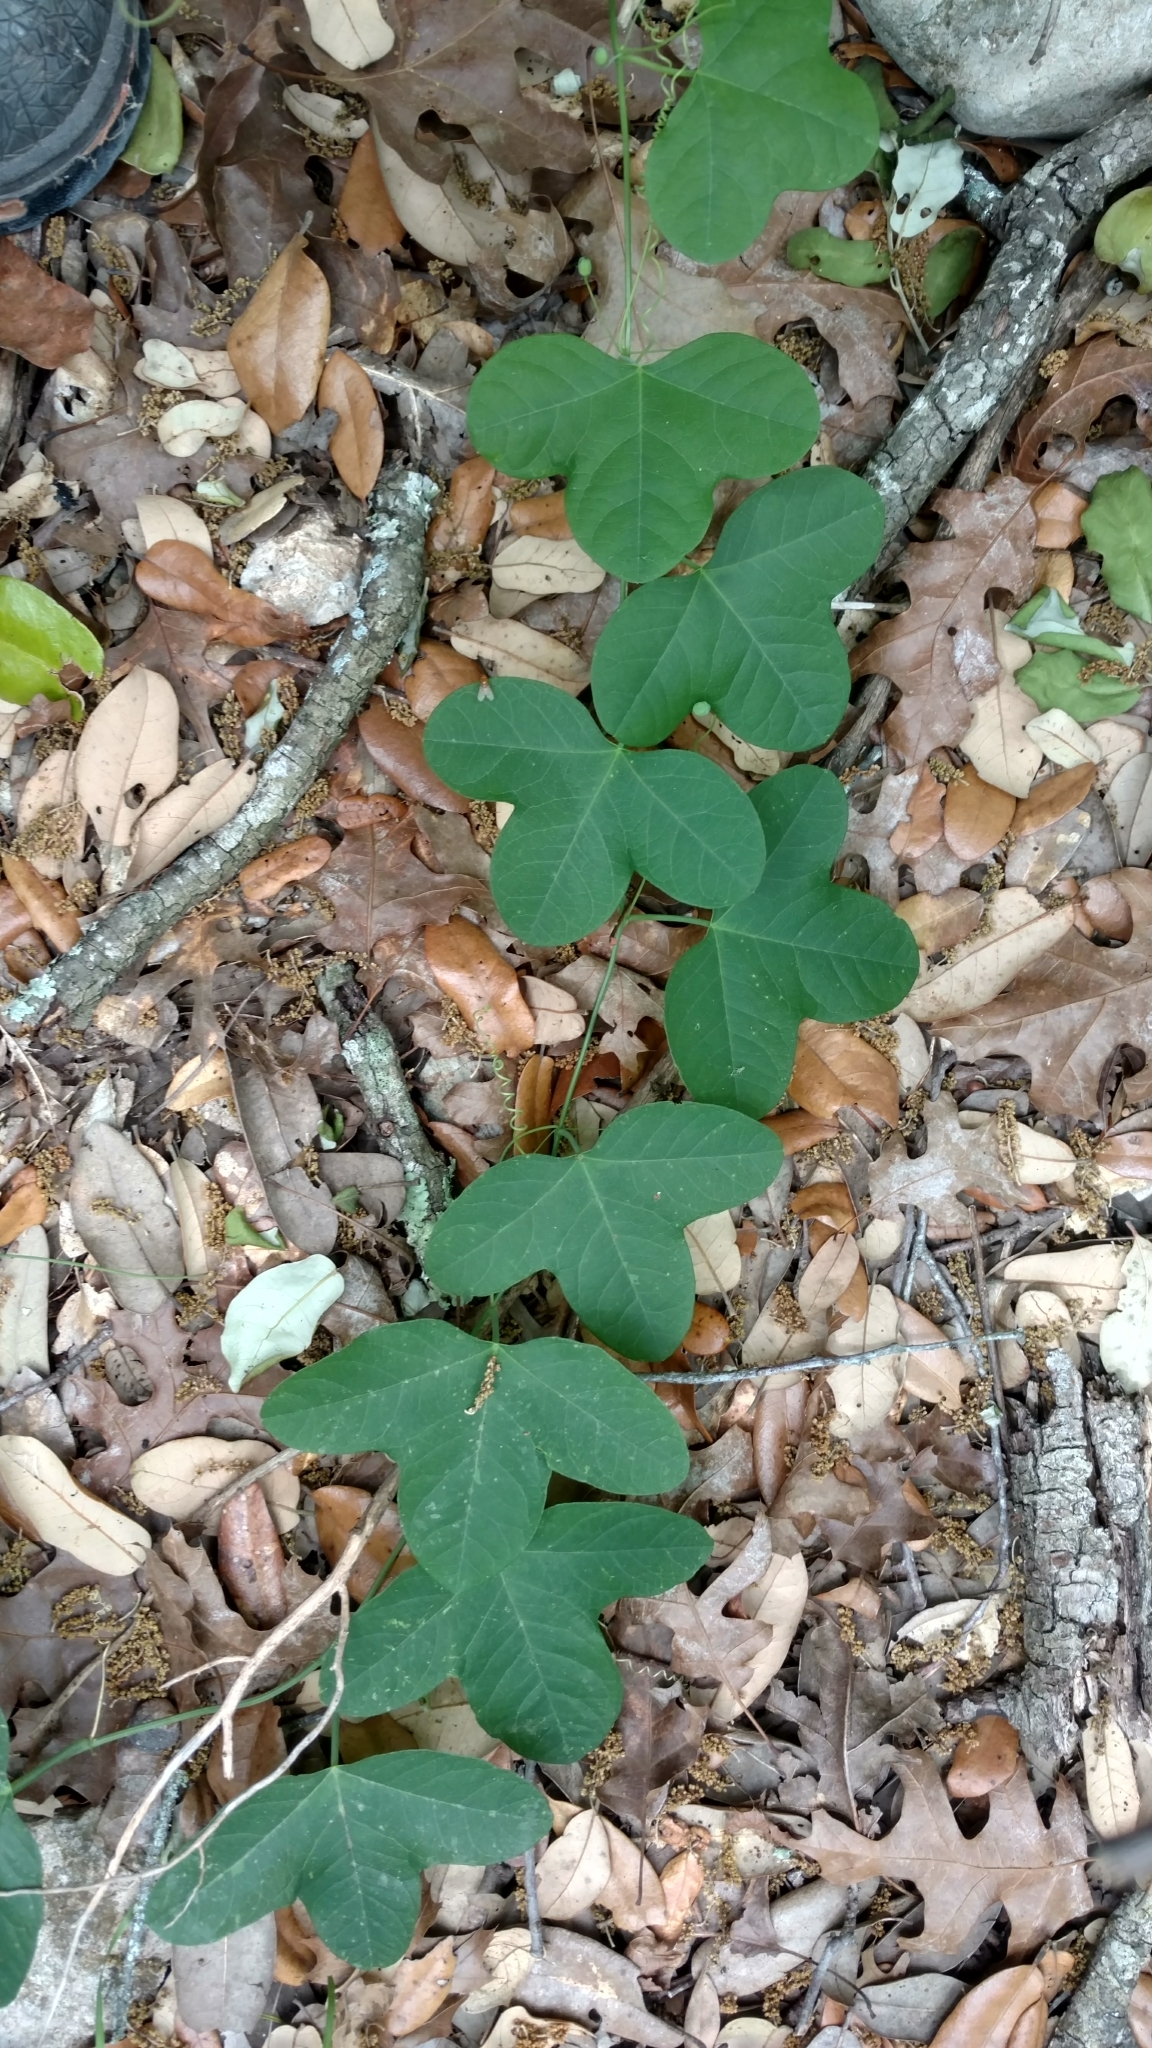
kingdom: Plantae
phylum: Tracheophyta
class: Magnoliopsida
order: Malpighiales
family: Passifloraceae
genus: Passiflora
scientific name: Passiflora lutea
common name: Yellow passionflower
